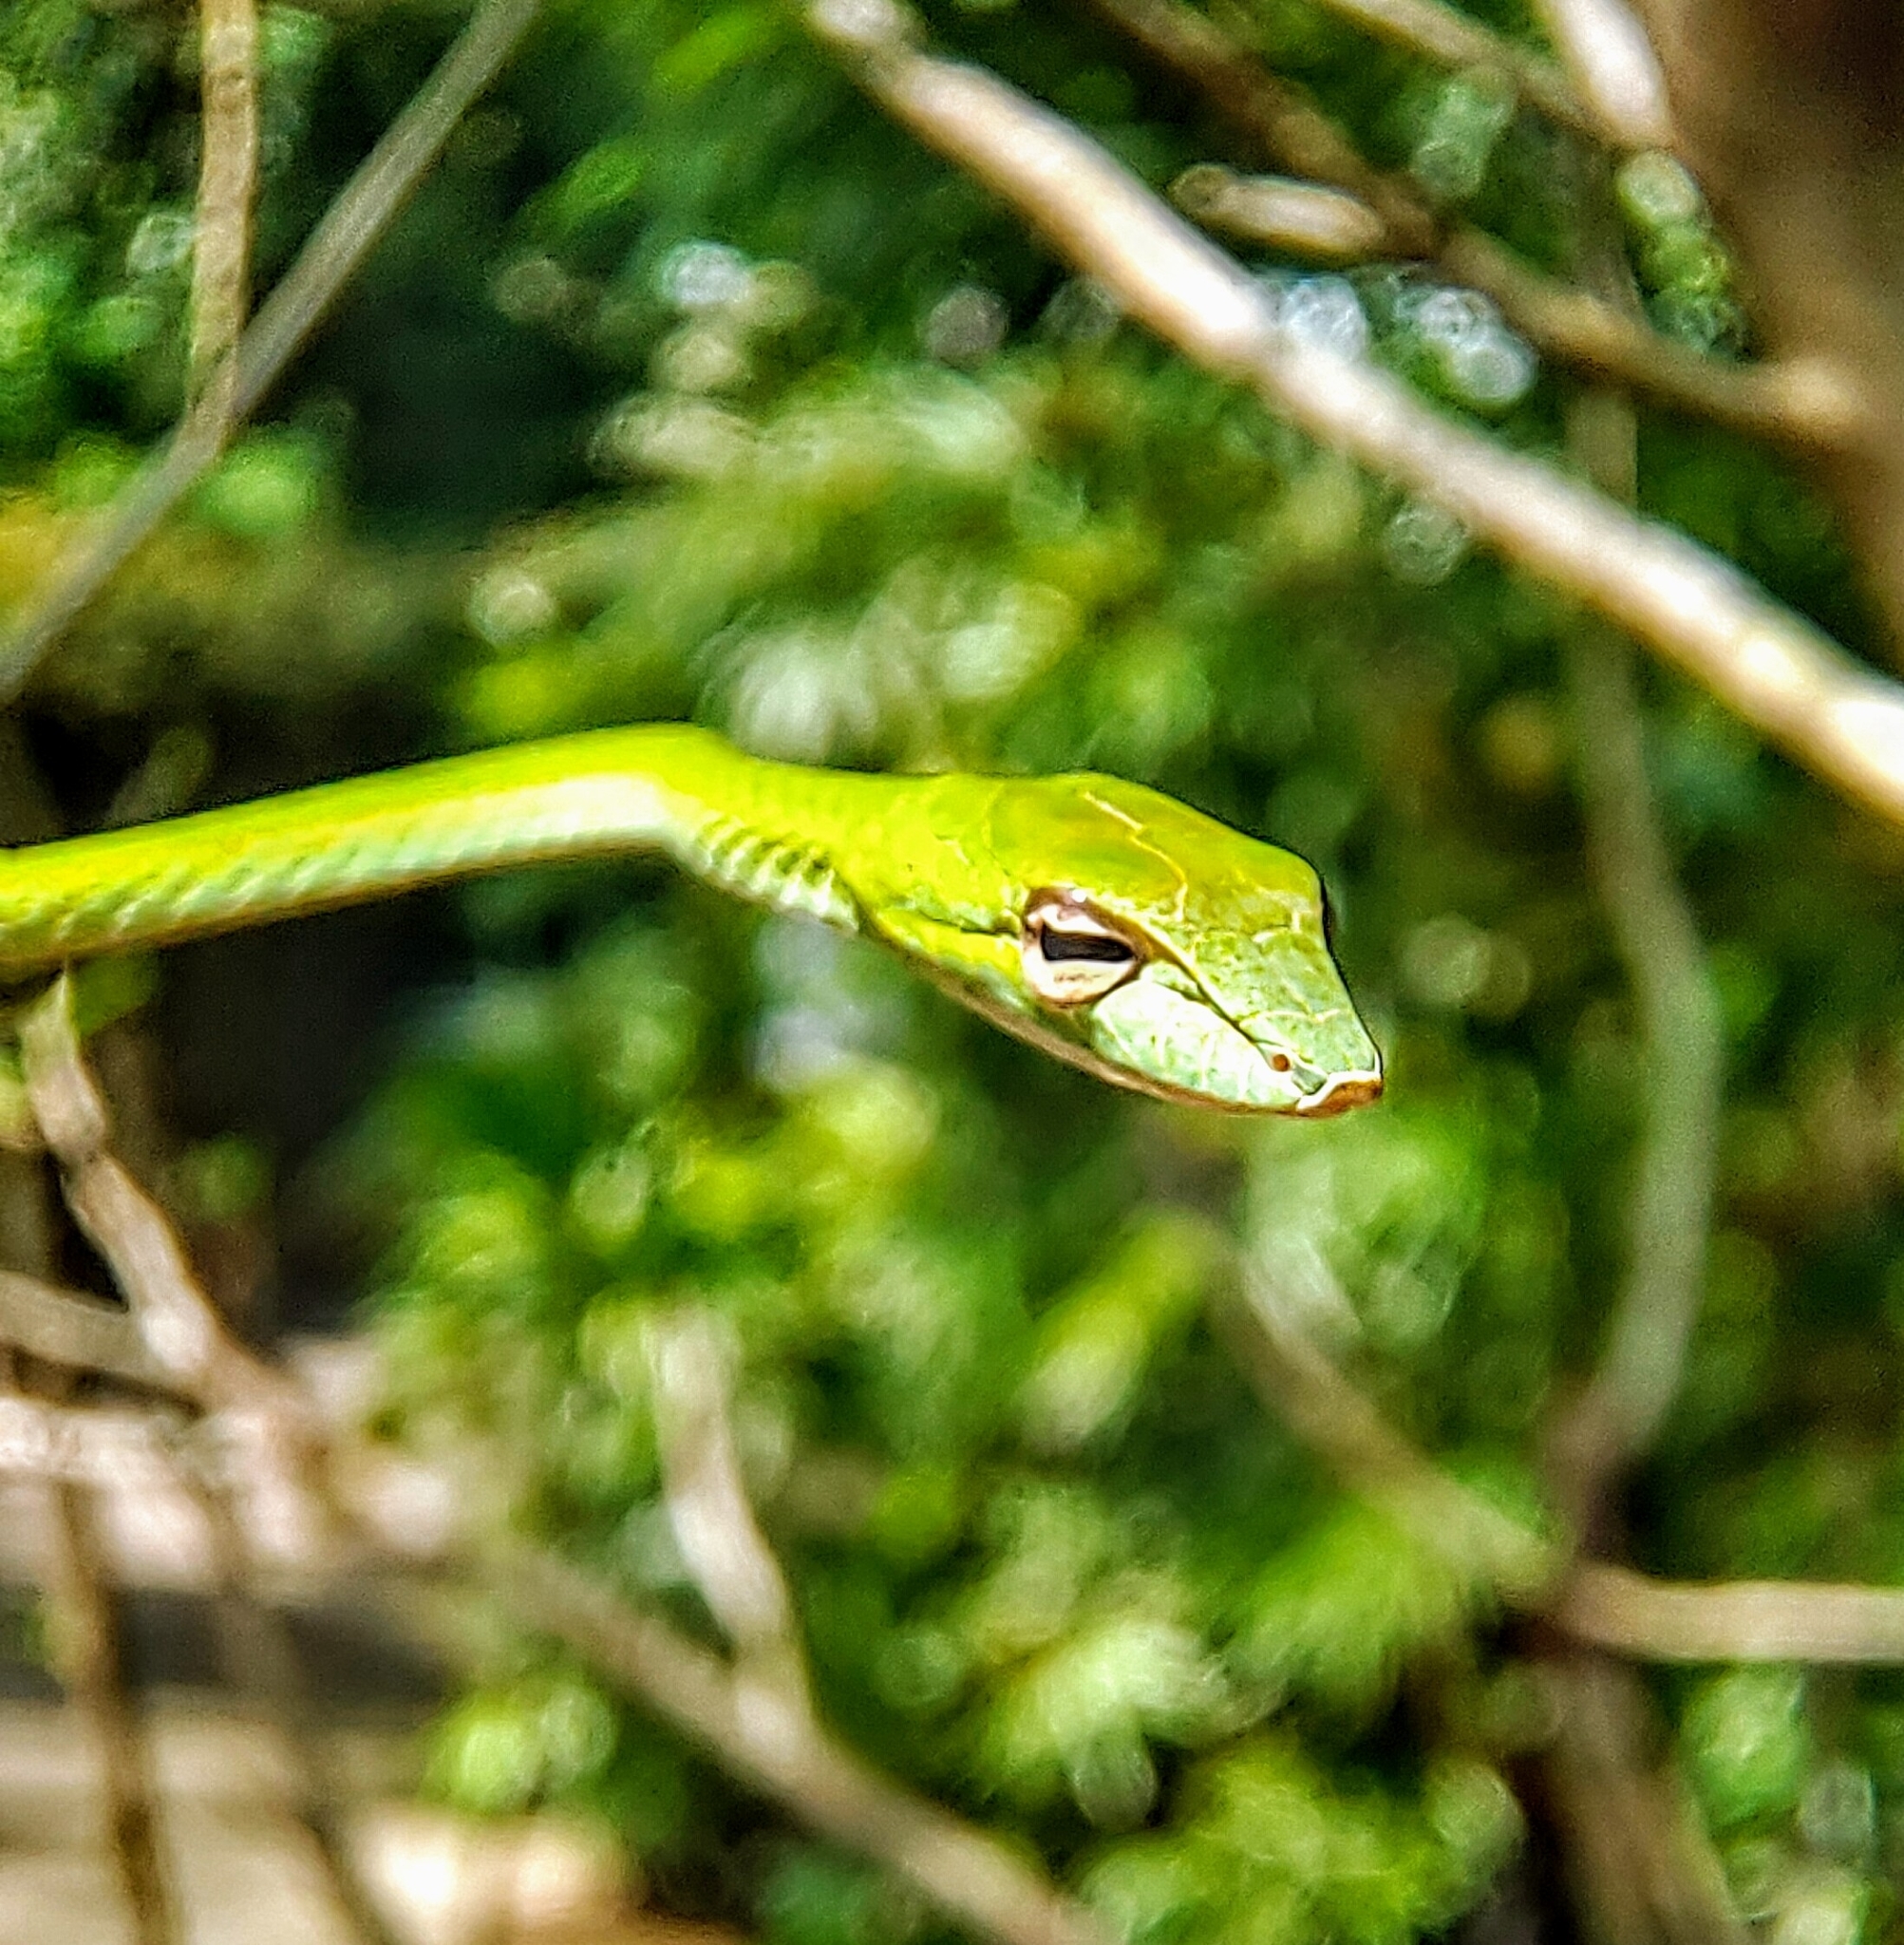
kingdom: Animalia
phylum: Chordata
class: Squamata
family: Colubridae
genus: Ahaetulla
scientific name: Ahaetulla prasina
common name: Oriental whip snake
